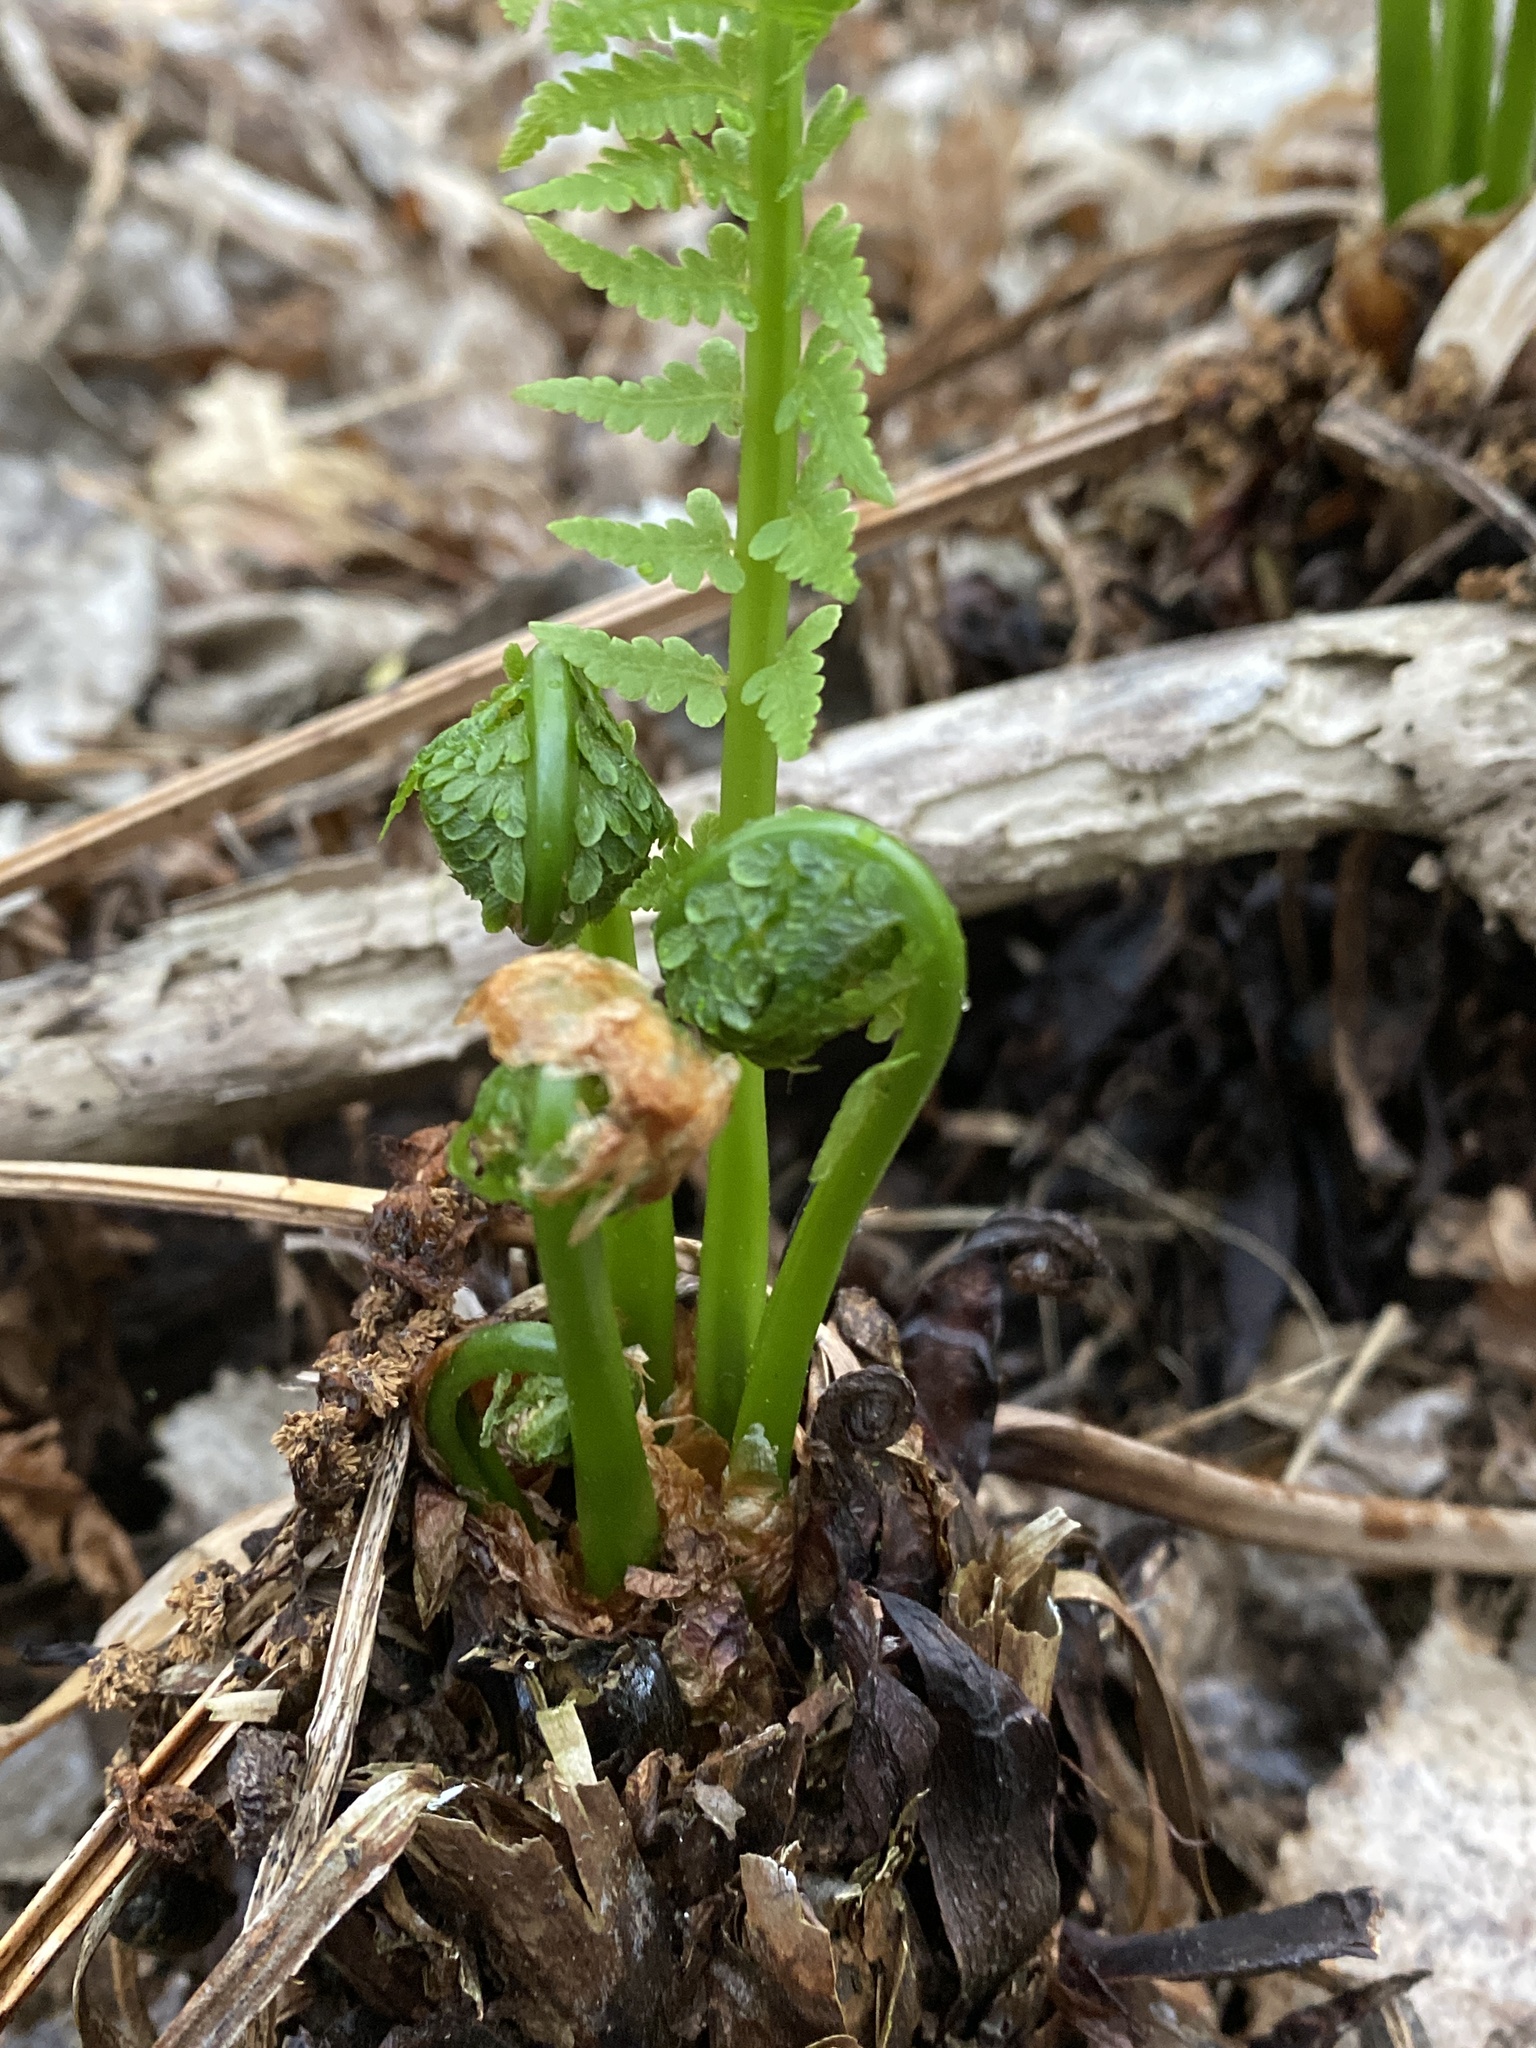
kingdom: Plantae
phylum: Tracheophyta
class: Polypodiopsida
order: Polypodiales
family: Onocleaceae
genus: Matteuccia
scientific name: Matteuccia struthiopteris
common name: Ostrich fern
